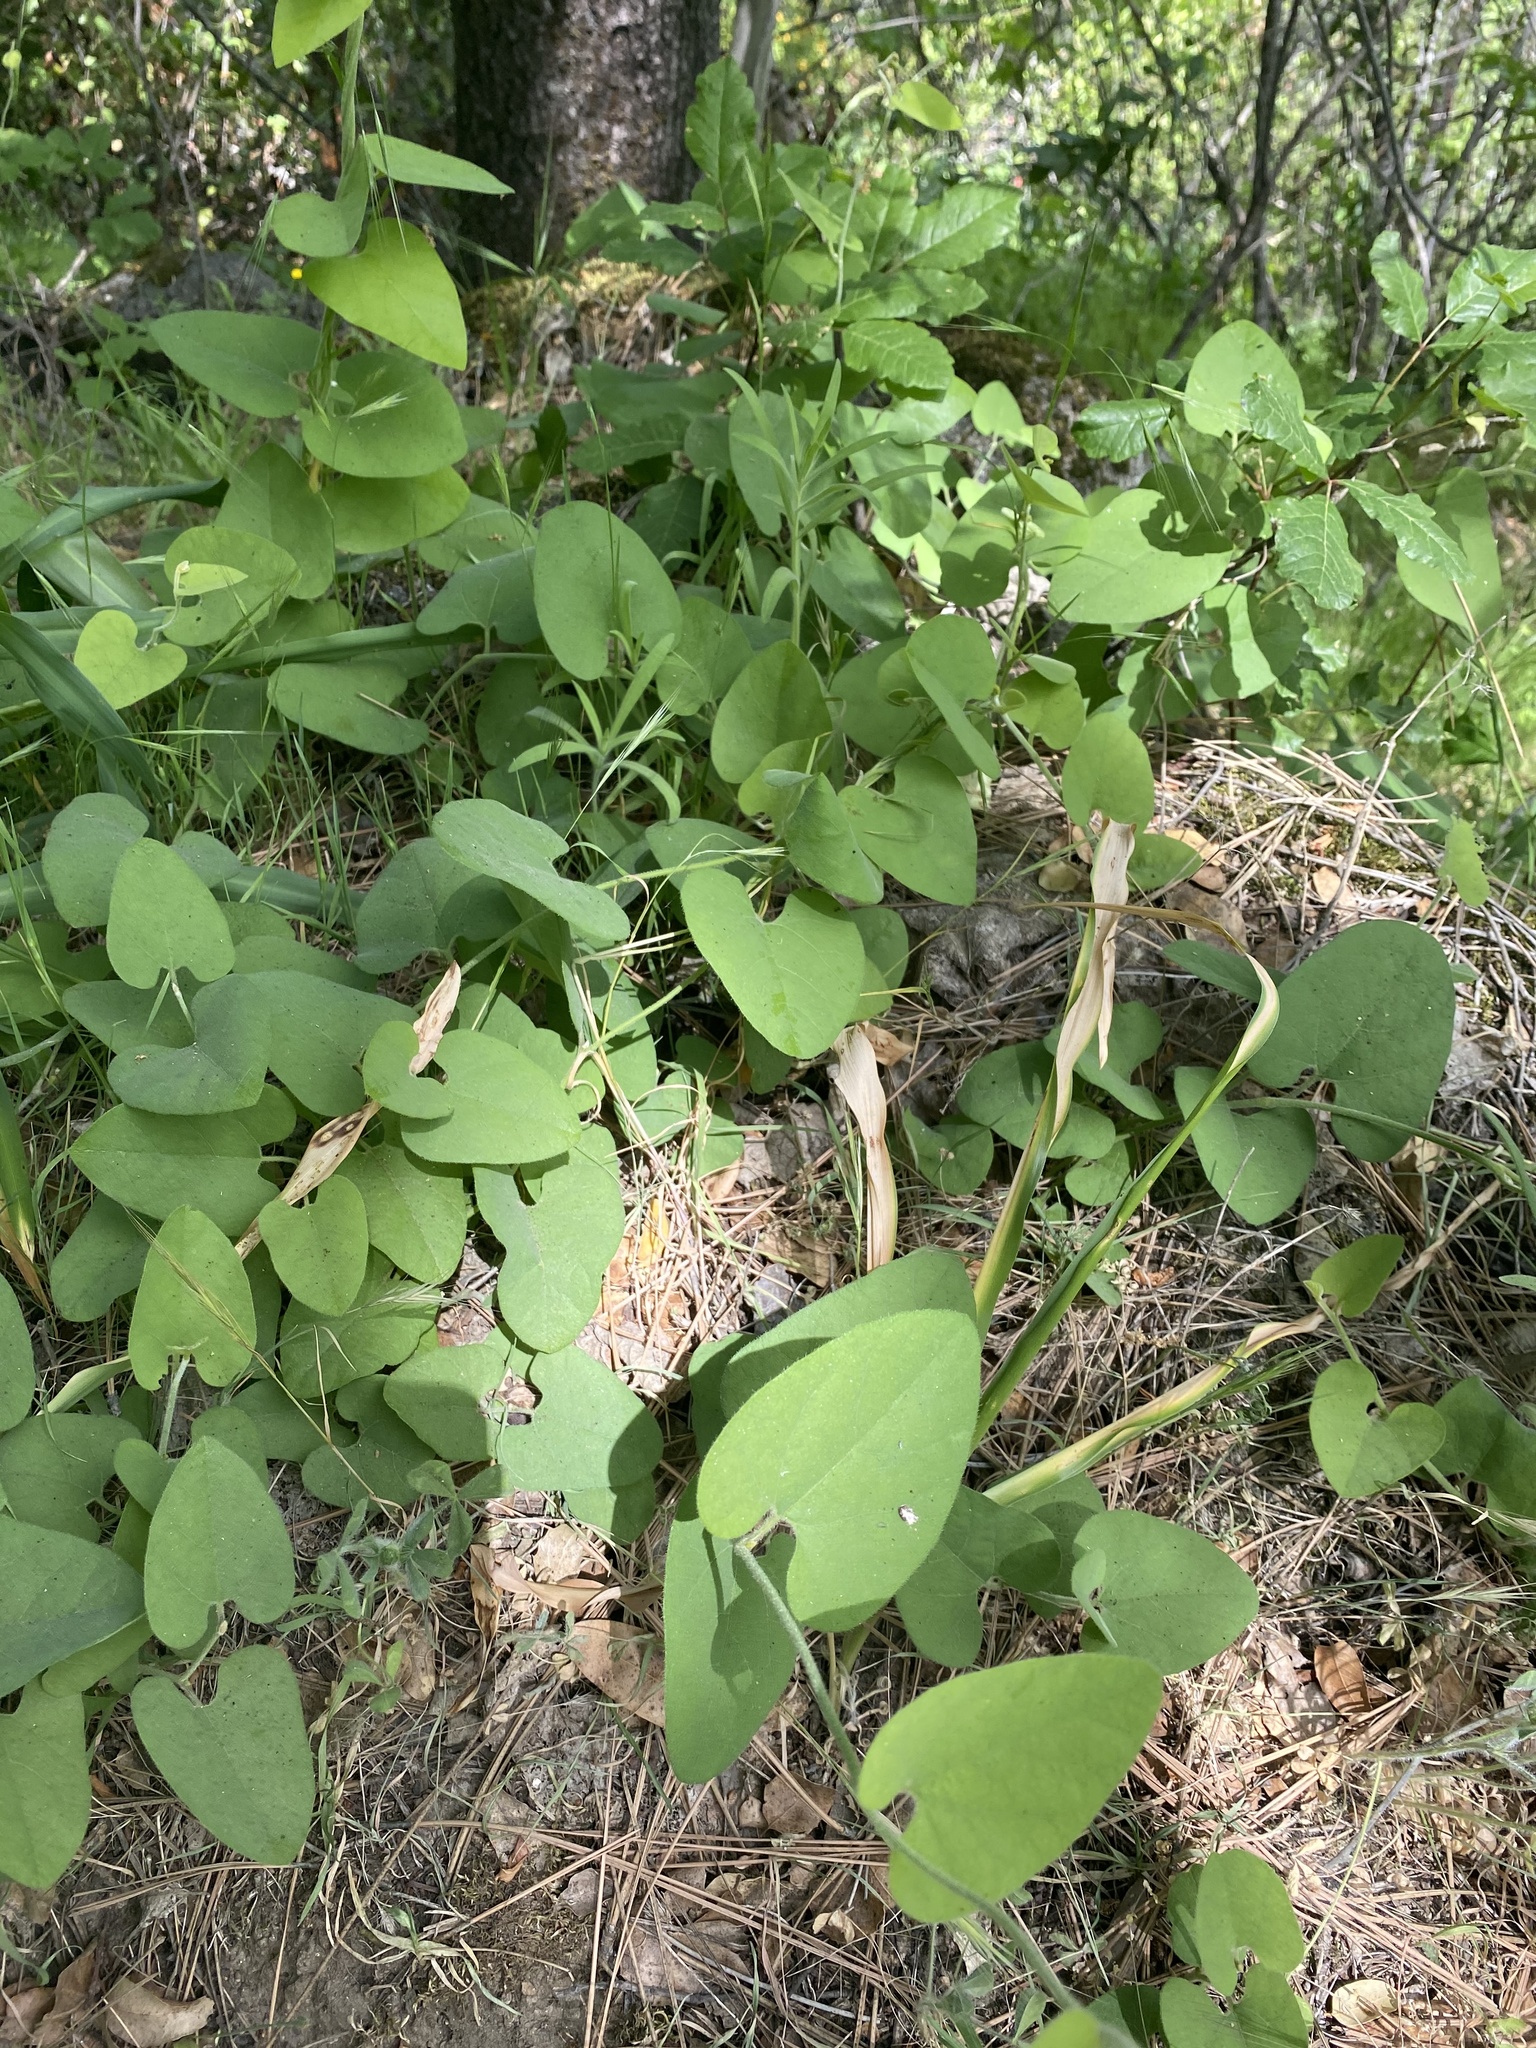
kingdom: Plantae
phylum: Tracheophyta
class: Magnoliopsida
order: Piperales
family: Aristolochiaceae
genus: Isotrema
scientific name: Isotrema californicum
